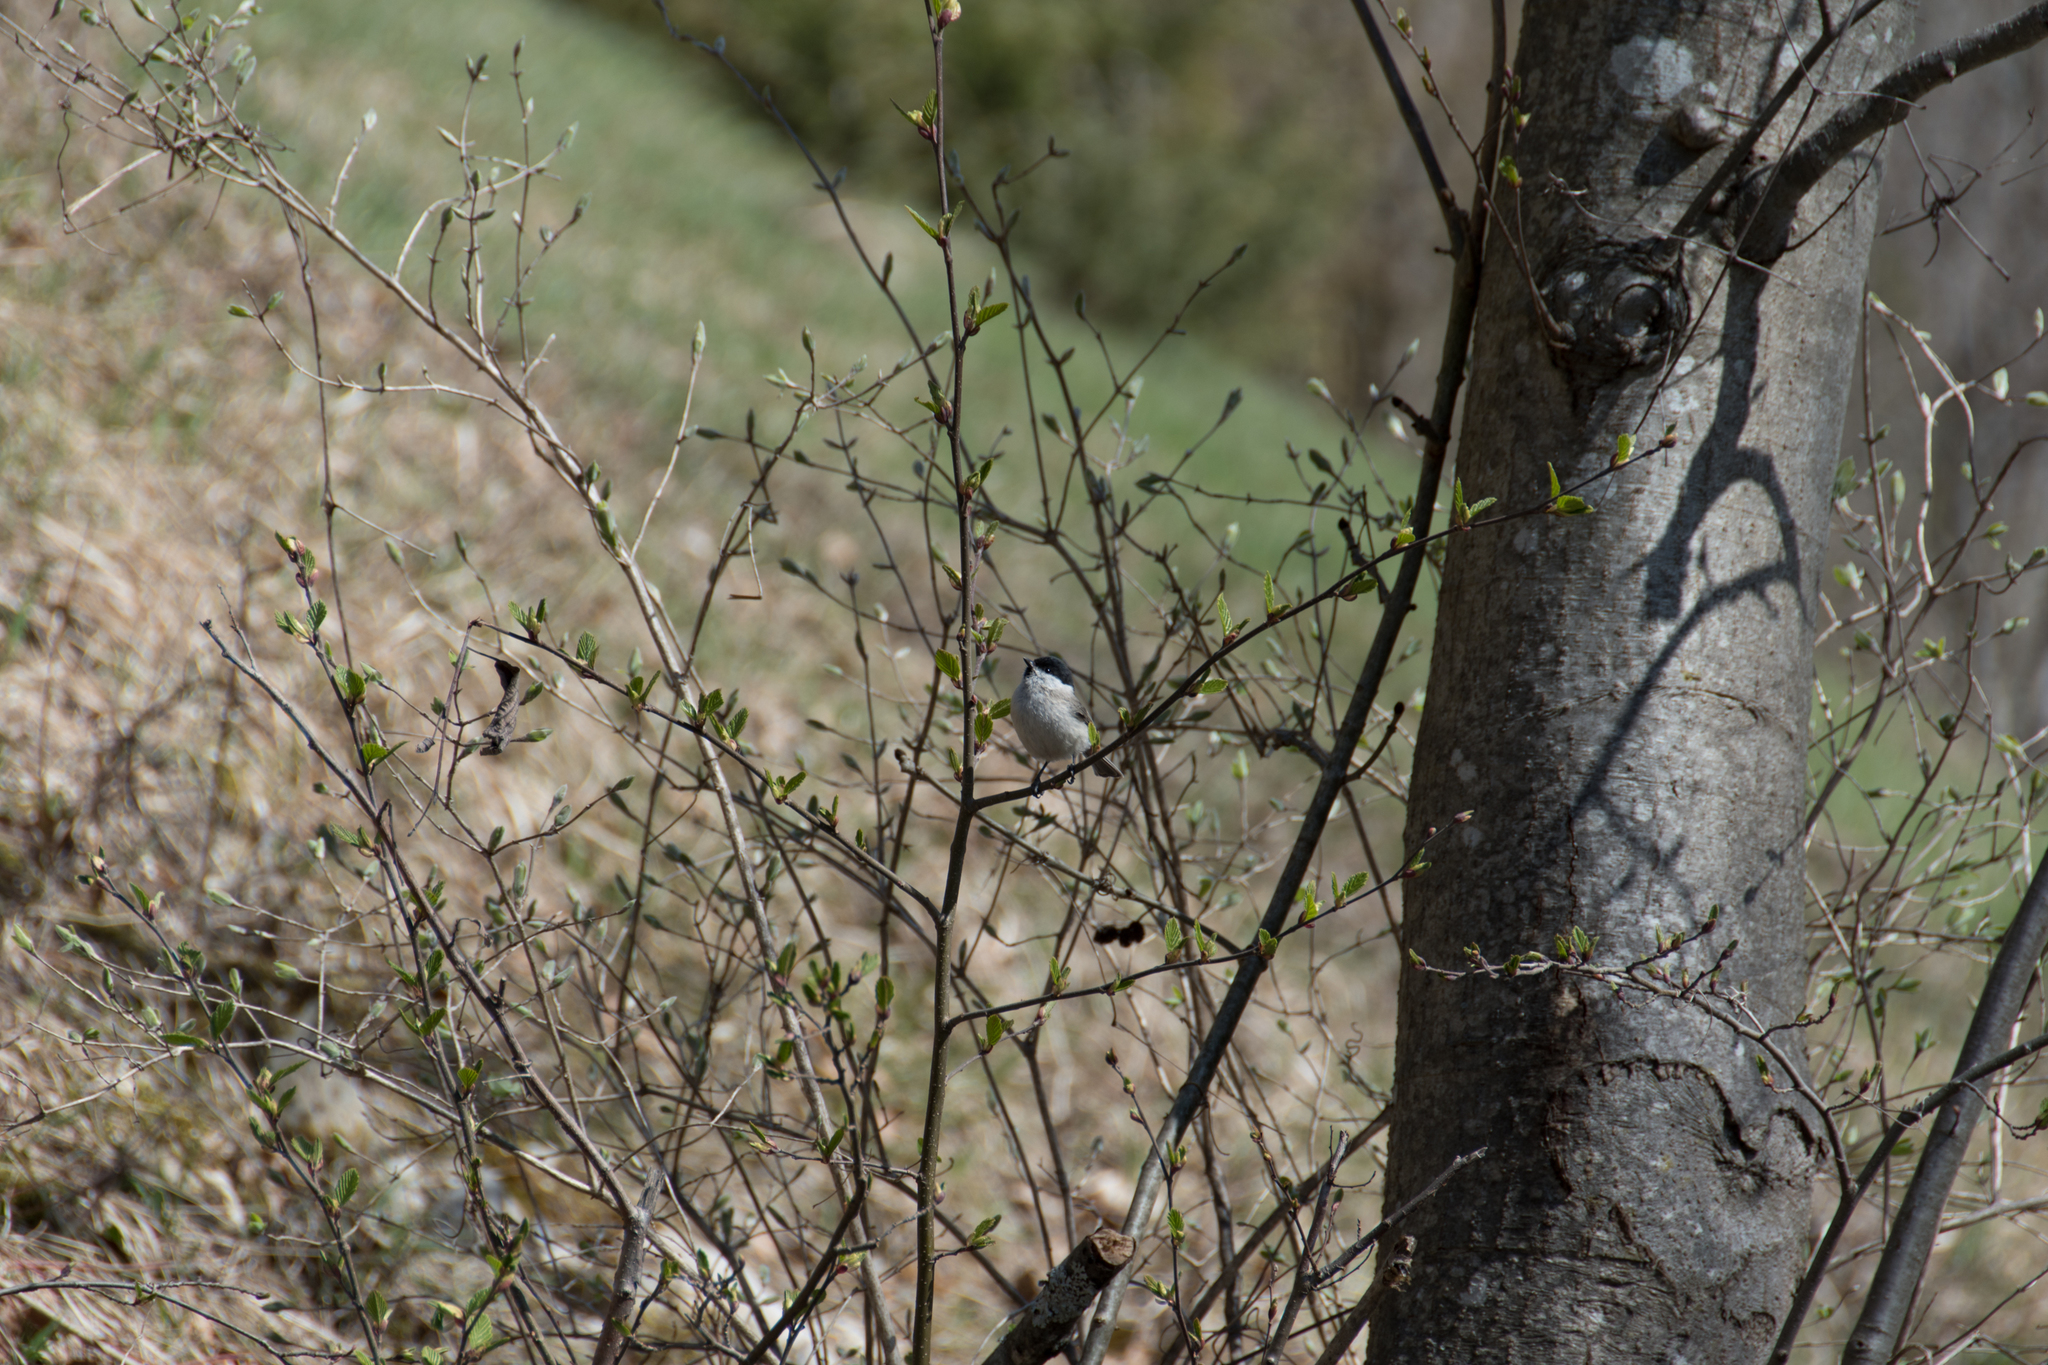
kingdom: Animalia
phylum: Chordata
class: Aves
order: Passeriformes
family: Paridae
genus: Poecile
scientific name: Poecile palustris
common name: Marsh tit
